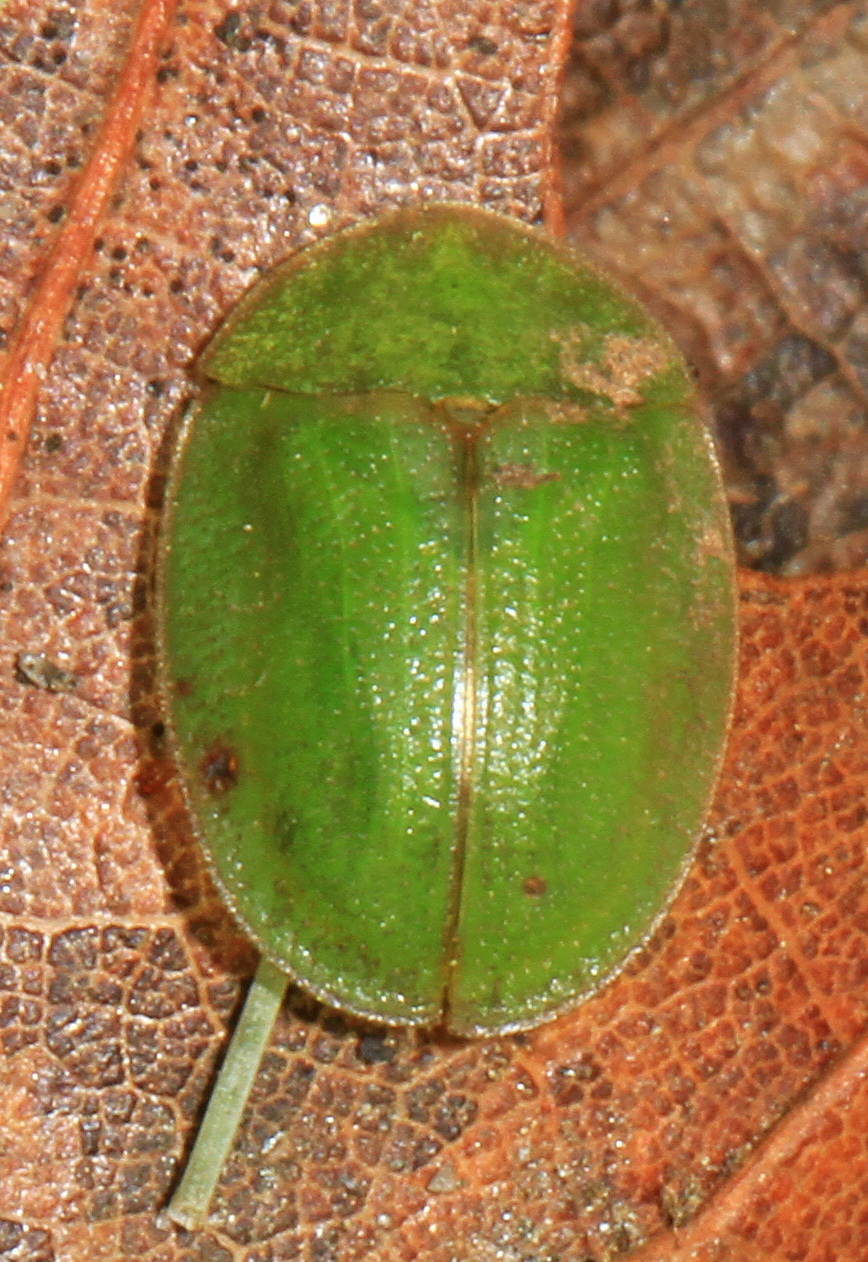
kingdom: Animalia
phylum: Arthropoda
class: Insecta
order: Coleoptera
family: Chrysomelidae
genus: Cassida
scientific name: Cassida rubiginosa
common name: Thistle tortoise beetle
